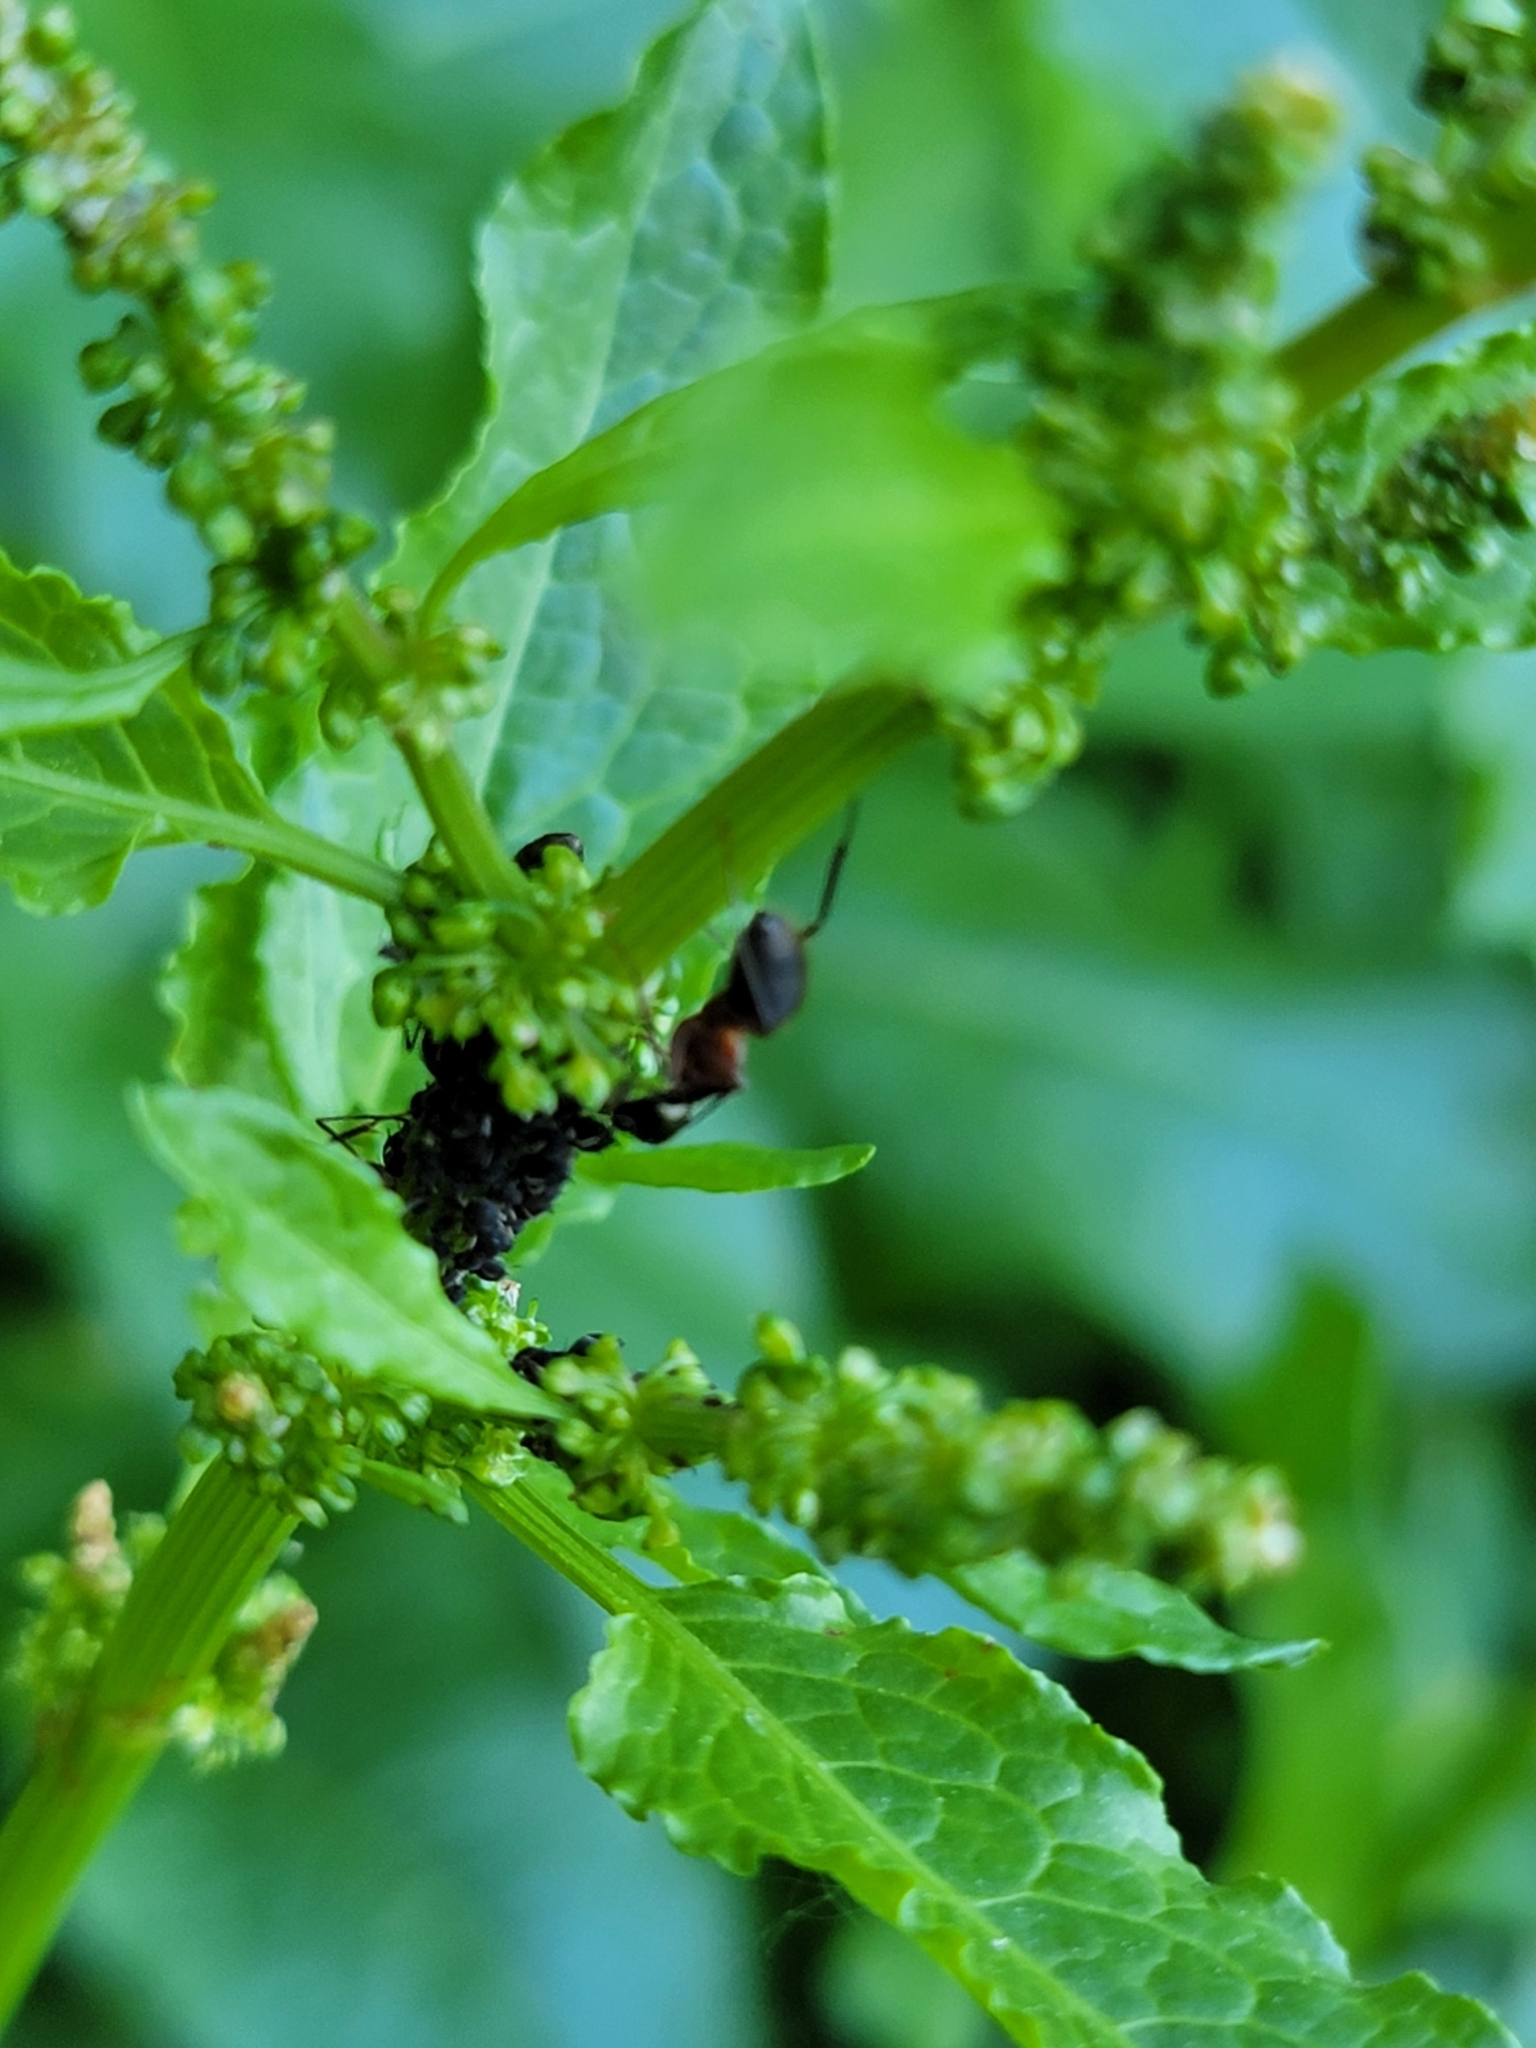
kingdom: Animalia
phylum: Arthropoda
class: Insecta
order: Hymenoptera
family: Formicidae
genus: Camponotus
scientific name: Camponotus chromaiodes
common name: Red carpenter ant
